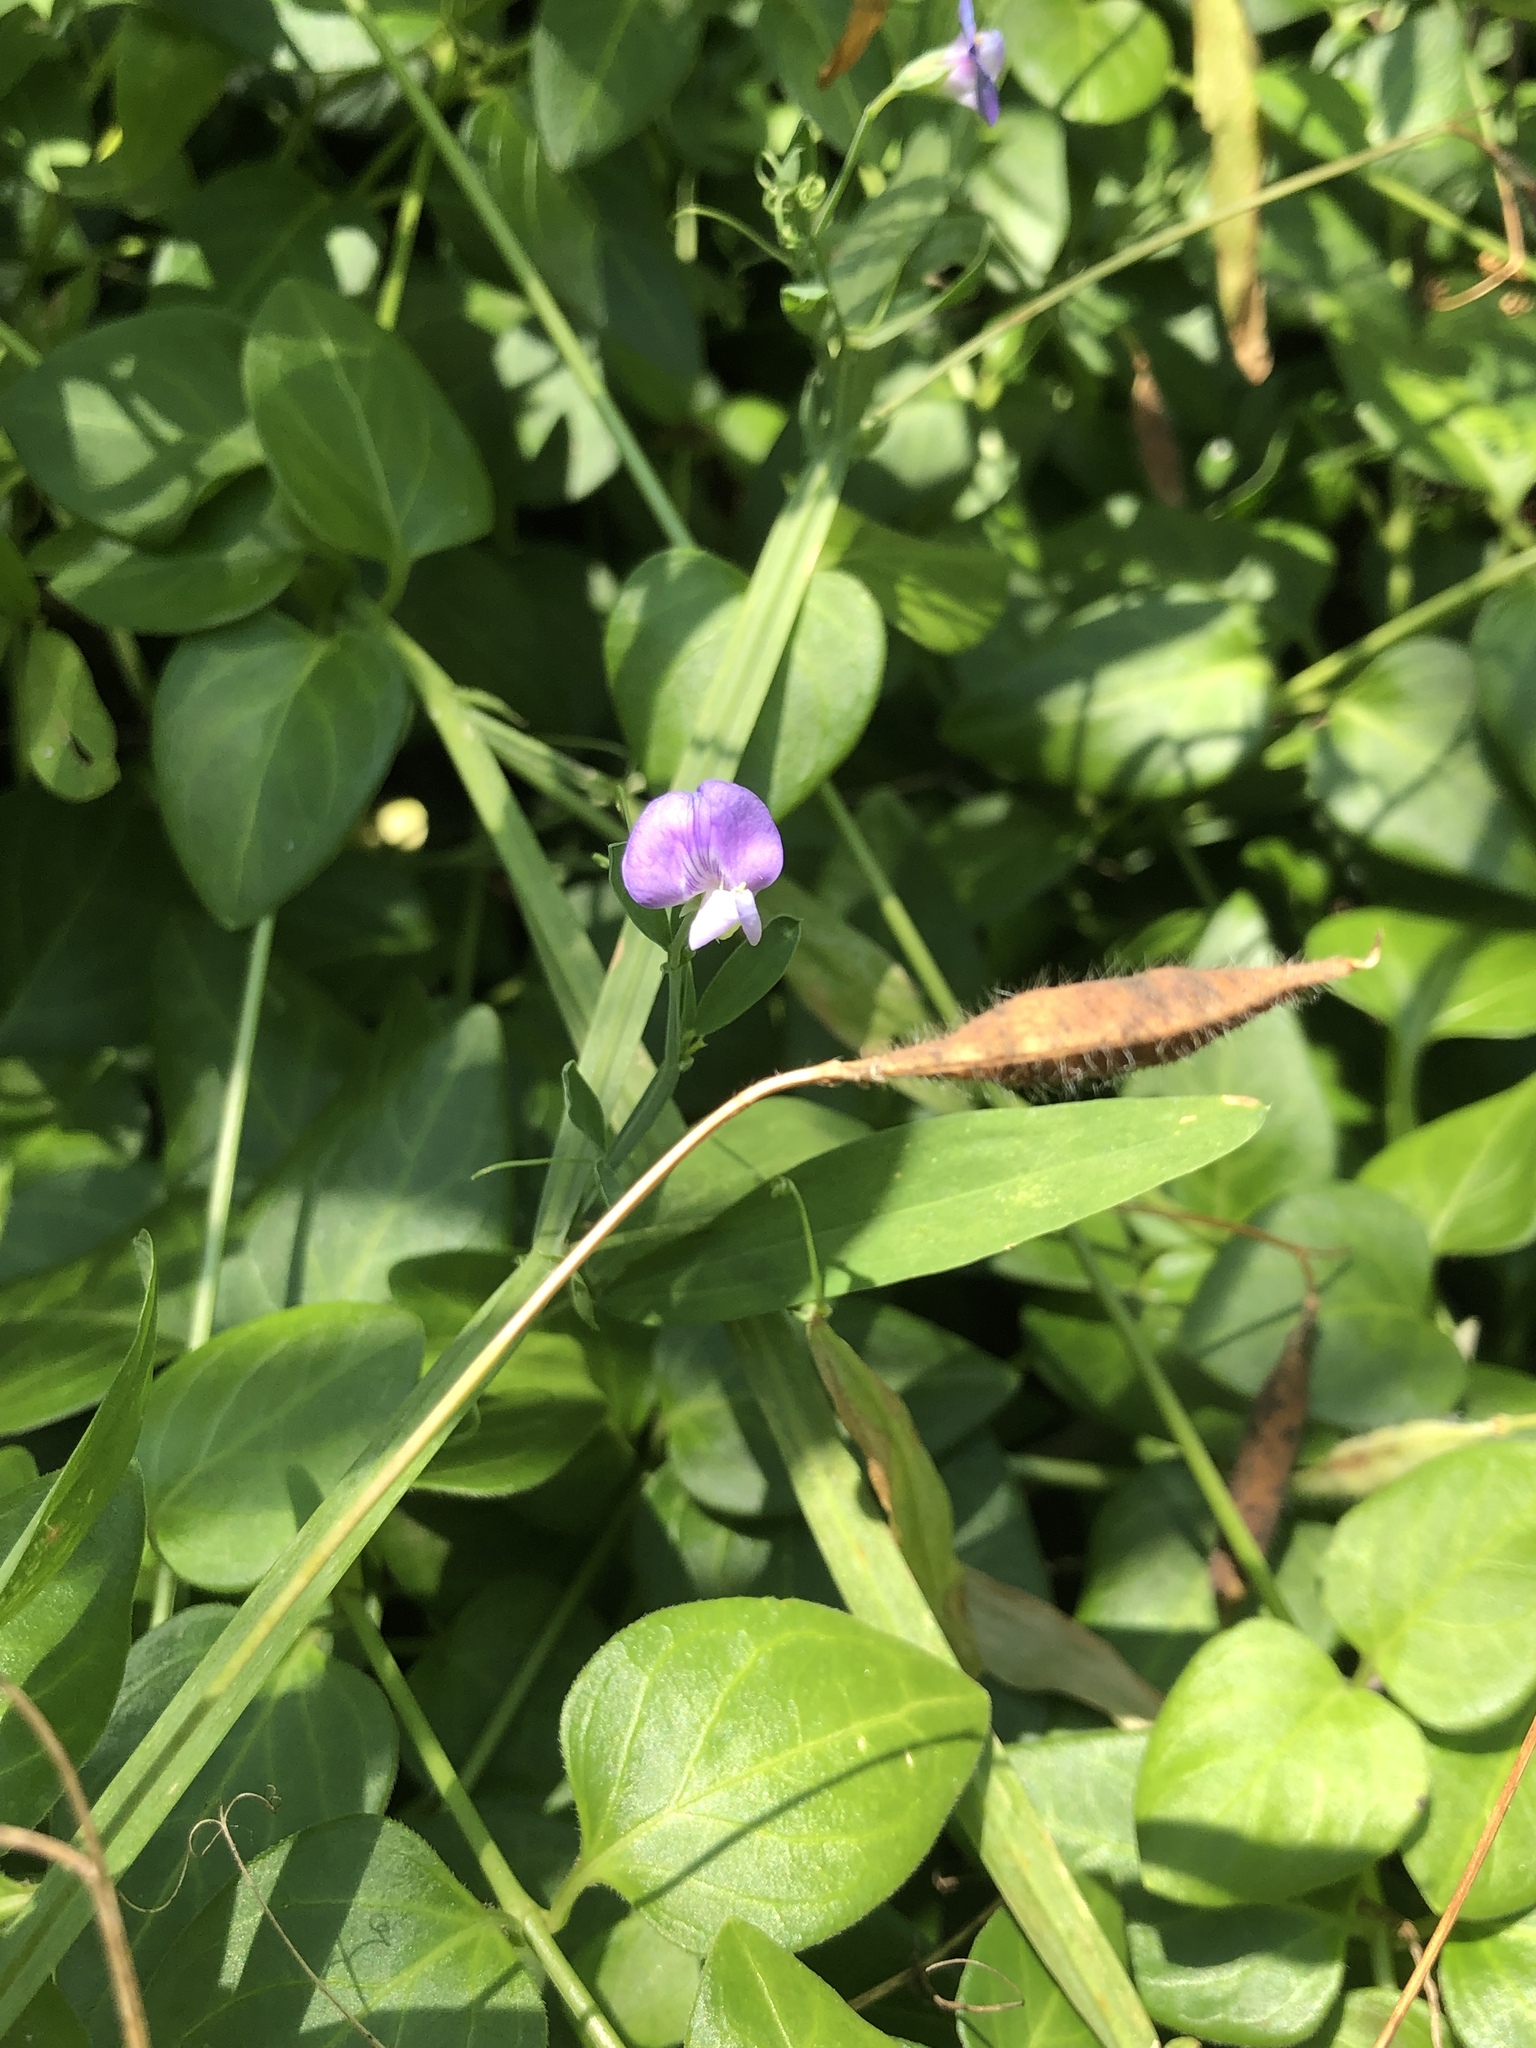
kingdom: Plantae
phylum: Tracheophyta
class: Magnoliopsida
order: Fabales
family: Fabaceae
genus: Lathyrus
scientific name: Lathyrus hirsutus
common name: Hairy vetchling
